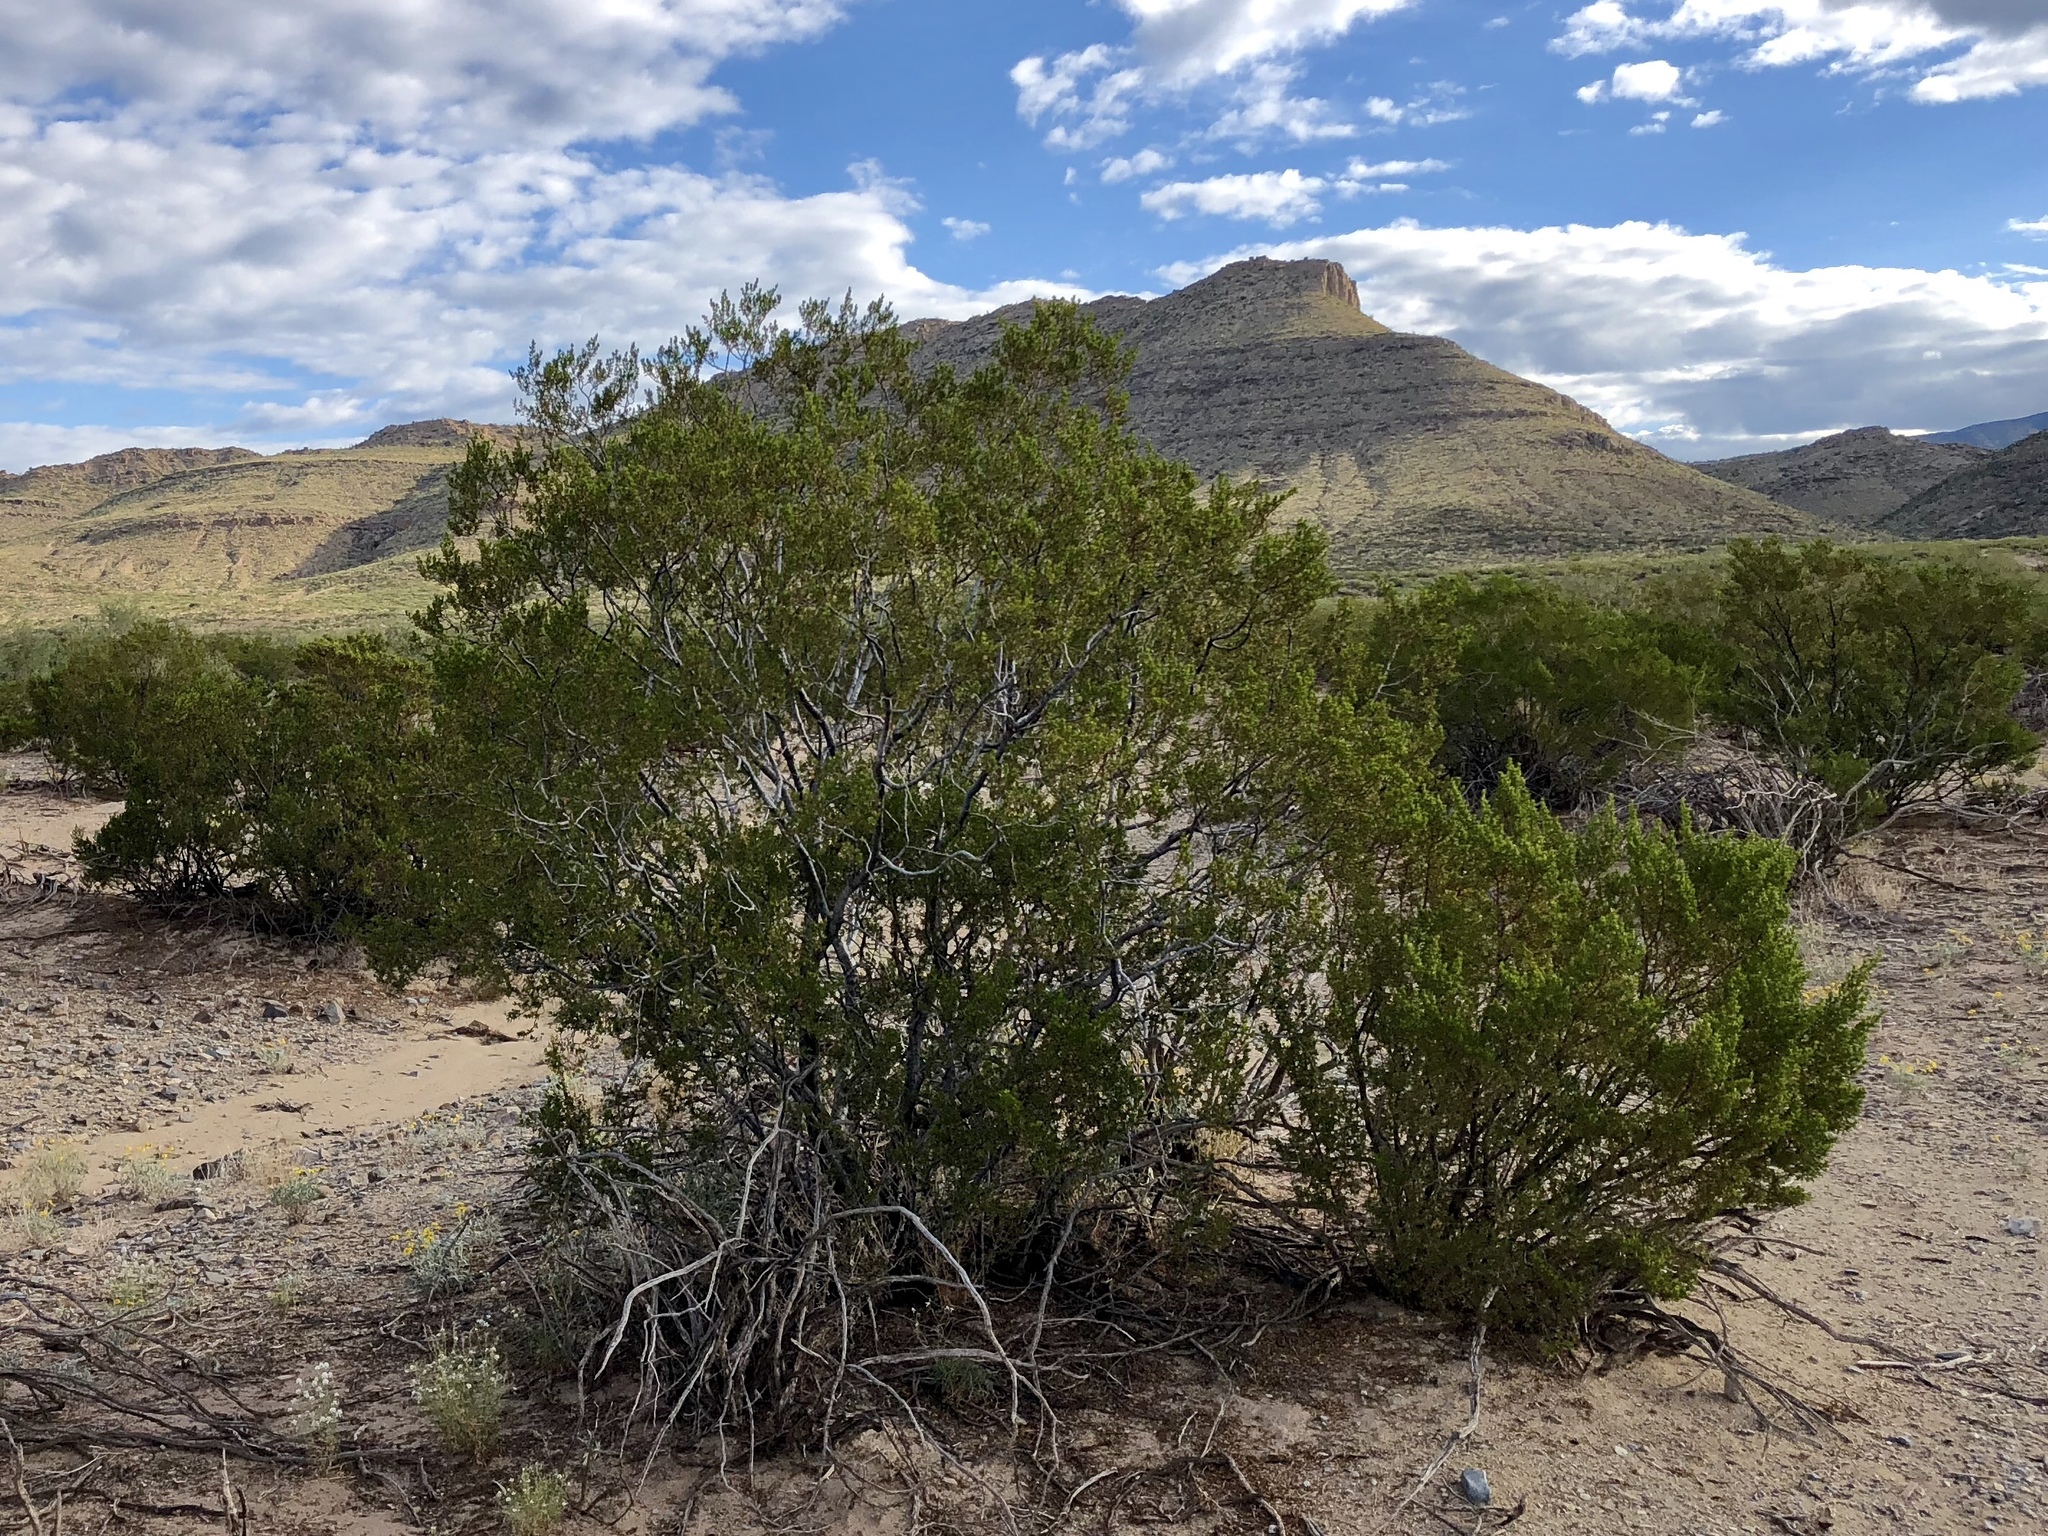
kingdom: Plantae
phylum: Tracheophyta
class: Magnoliopsida
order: Zygophyllales
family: Zygophyllaceae
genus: Larrea
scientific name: Larrea tridentata
